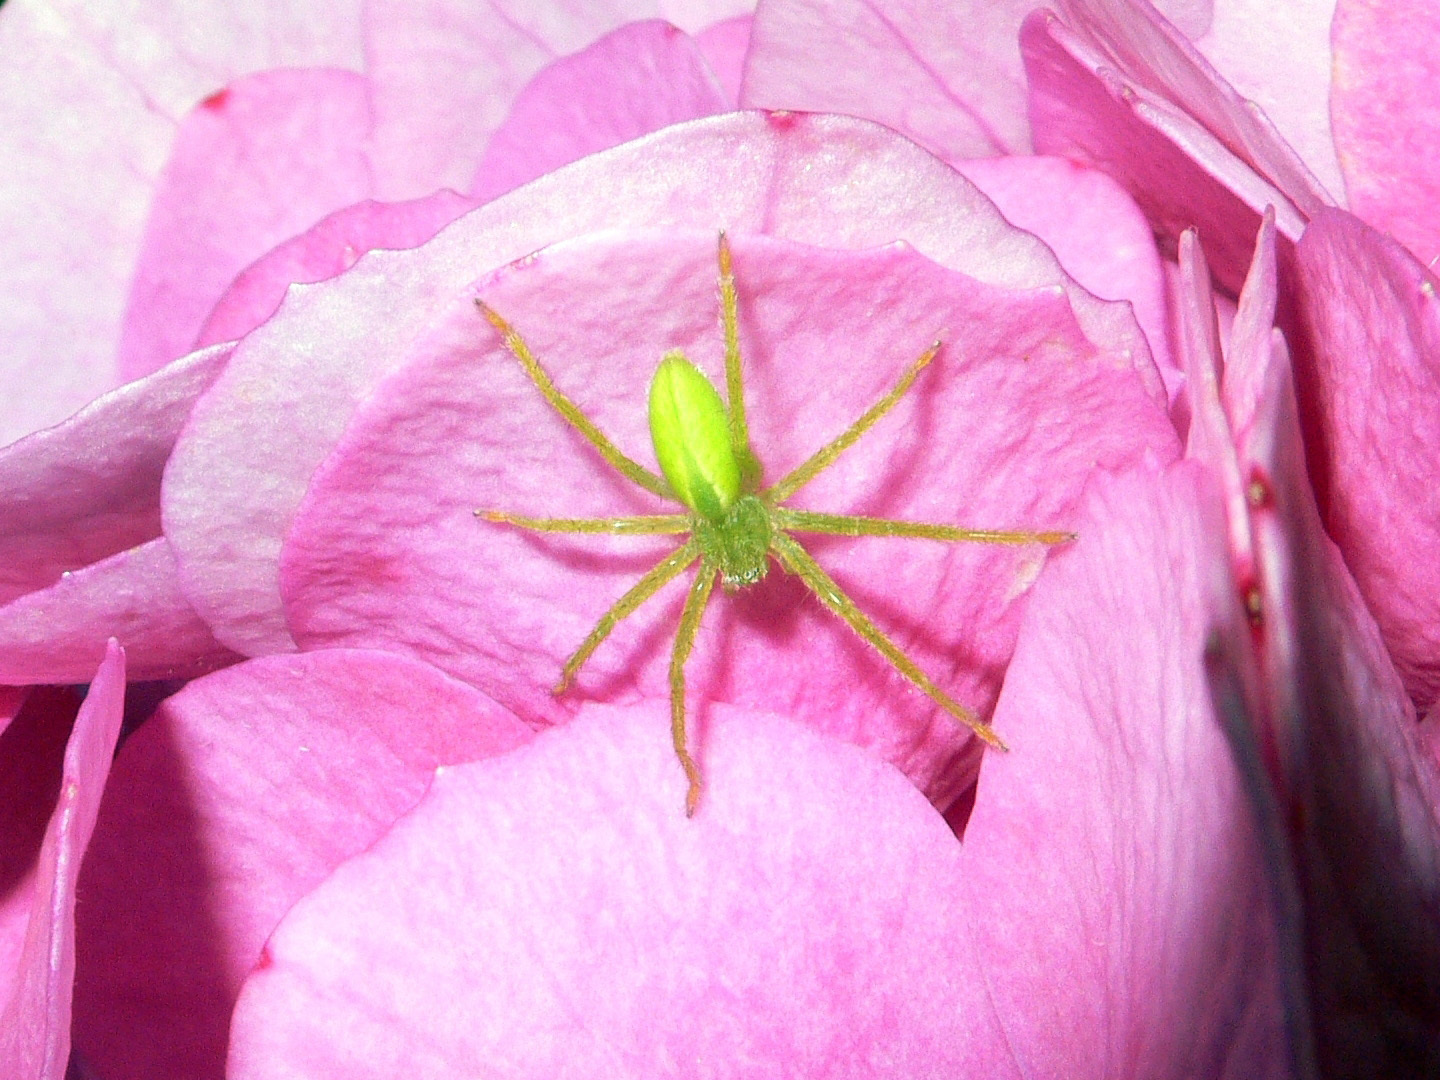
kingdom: Animalia
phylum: Arthropoda
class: Arachnida
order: Araneae
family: Sparassidae
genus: Micrommata
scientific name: Micrommata virescens
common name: Green spider
